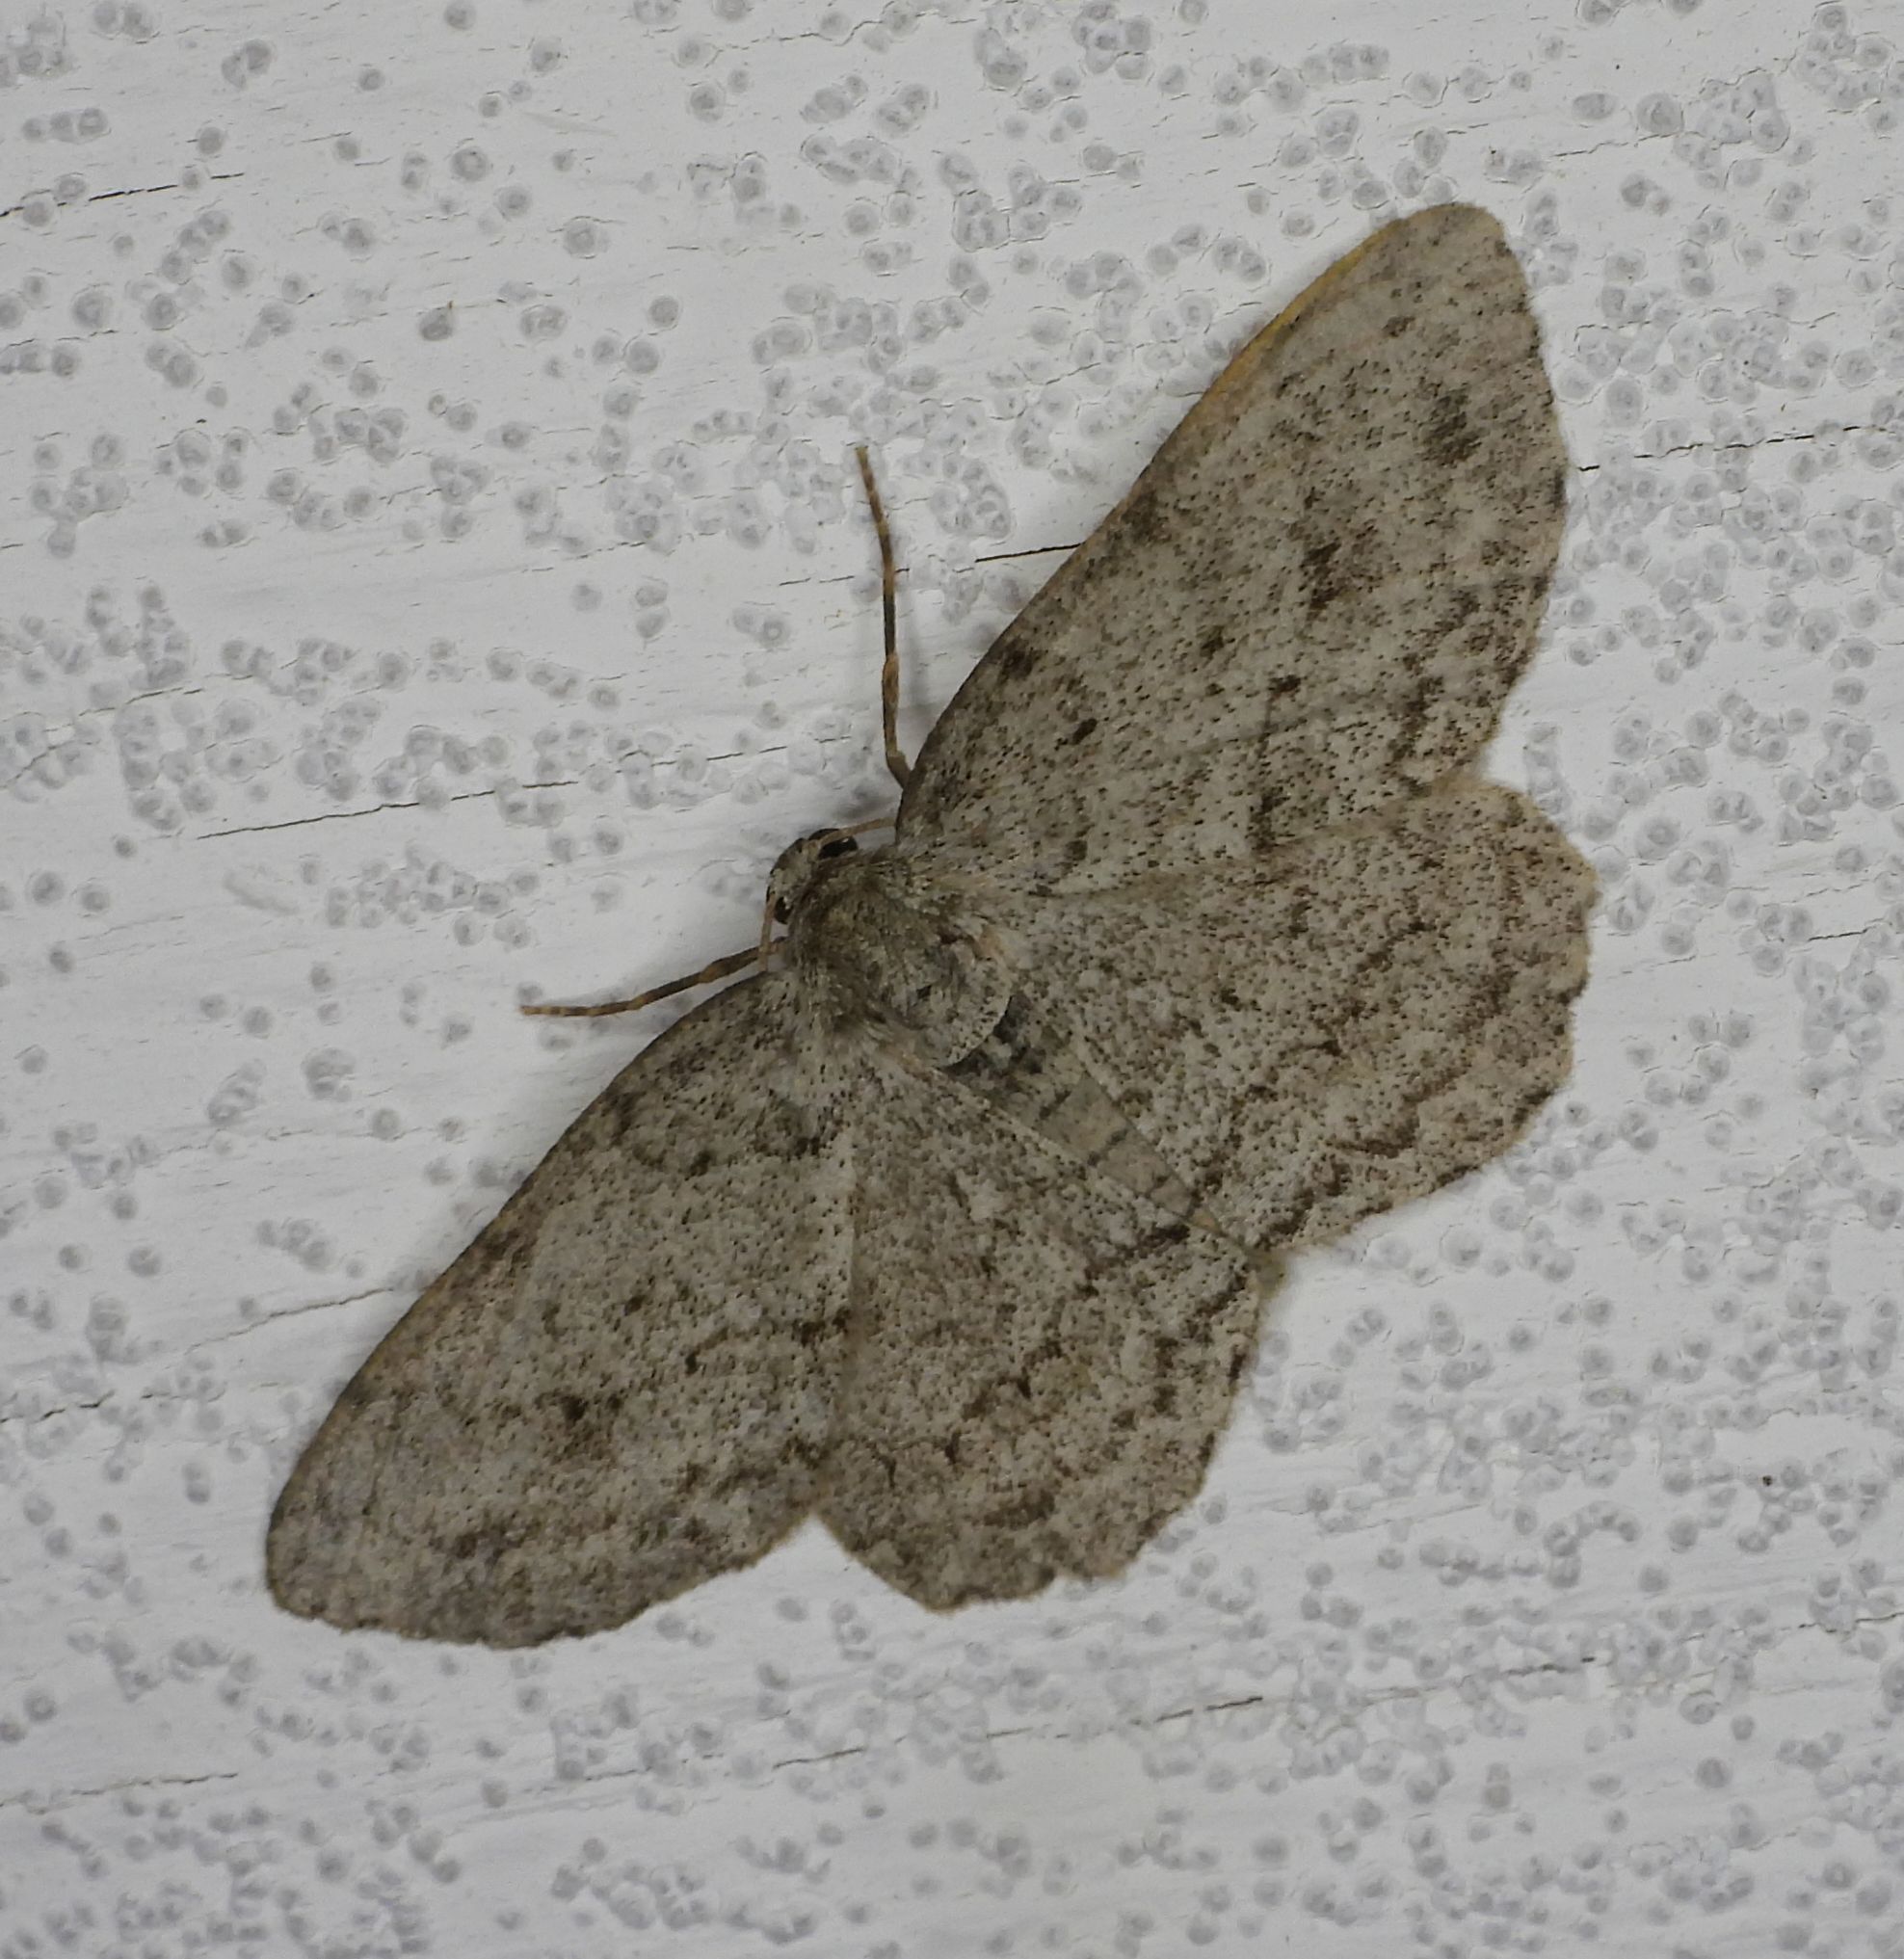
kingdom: Animalia
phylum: Arthropoda
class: Insecta
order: Lepidoptera
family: Geometridae
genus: Ectropis
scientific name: Ectropis crepuscularia
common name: Engrailed
